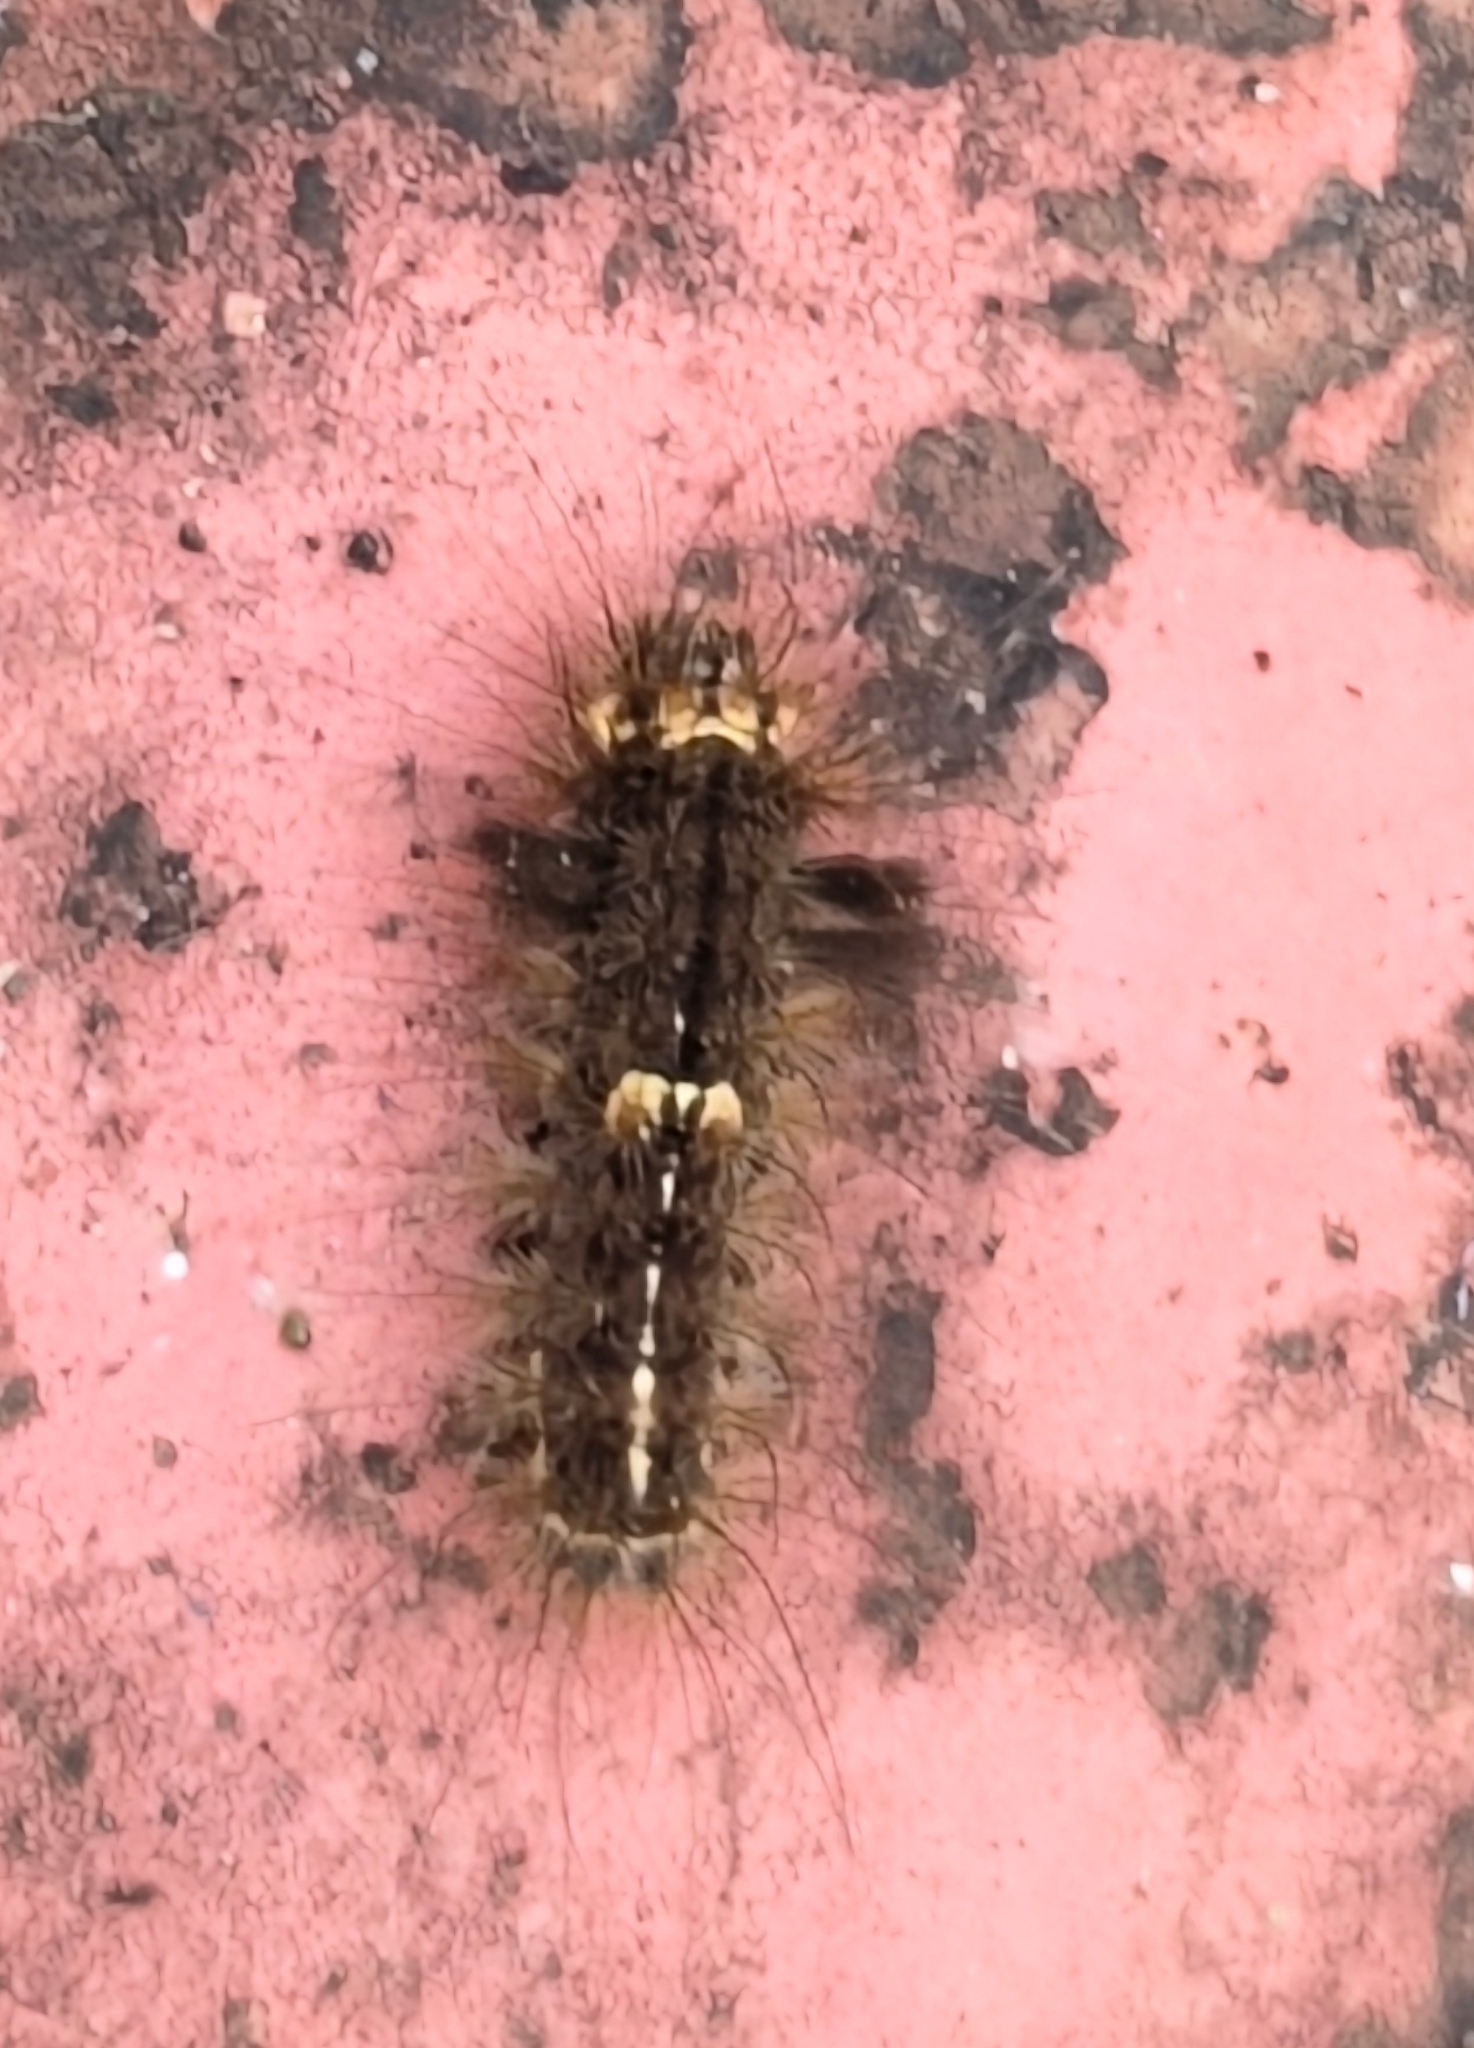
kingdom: Animalia
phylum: Arthropoda
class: Insecta
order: Lepidoptera
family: Erebidae
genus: Nepita
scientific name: Nepita conferta
